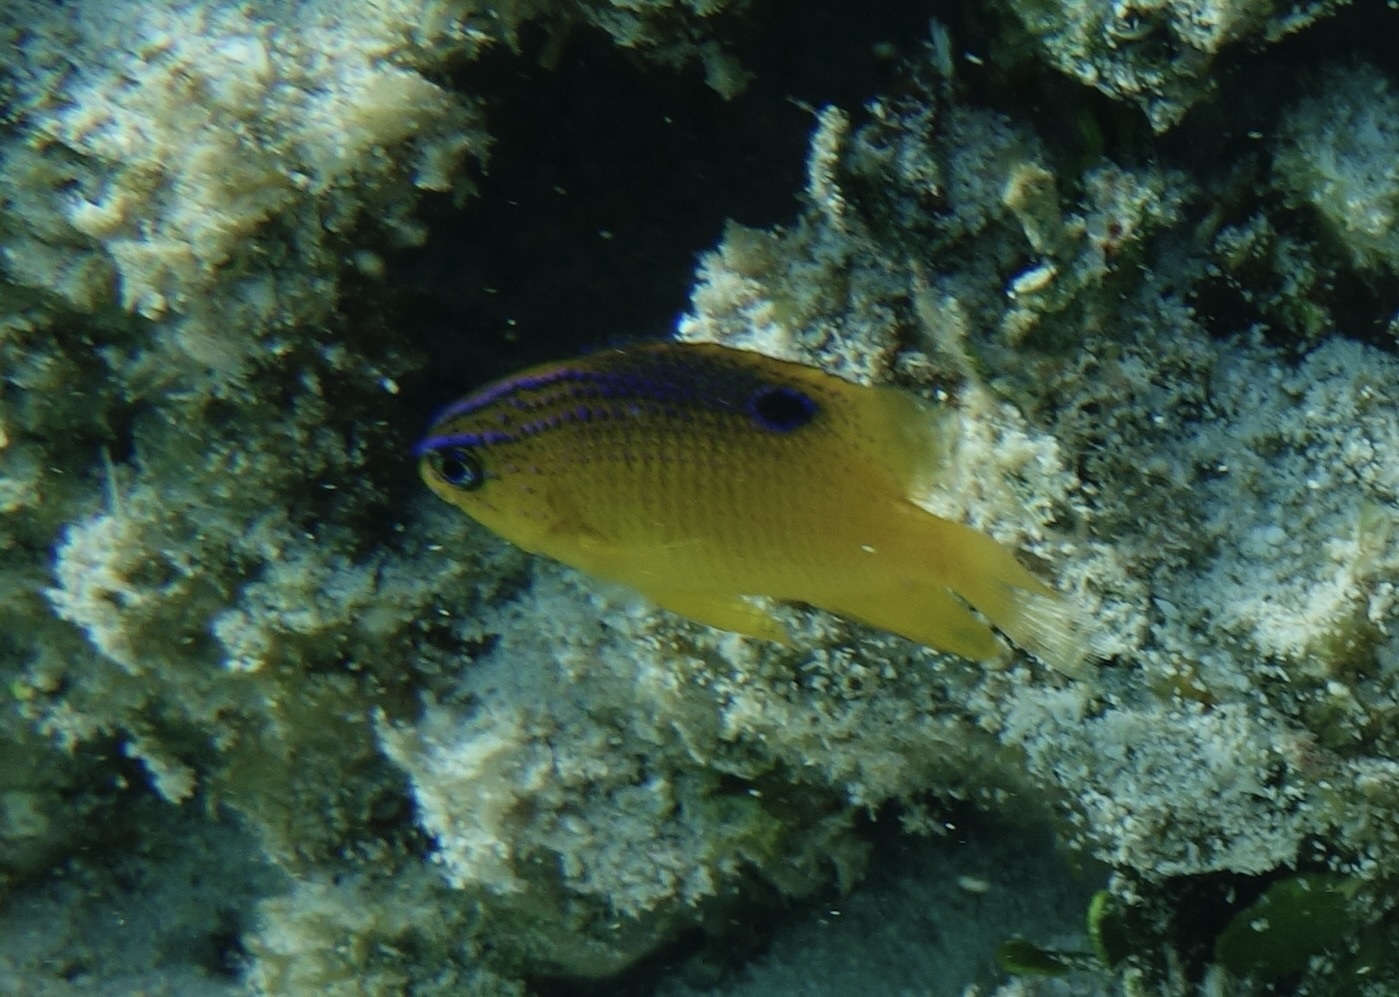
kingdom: Animalia
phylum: Chordata
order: Perciformes
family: Pomacentridae
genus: Stegastes
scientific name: Stegastes diencaeus
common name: Longfin damselfish
